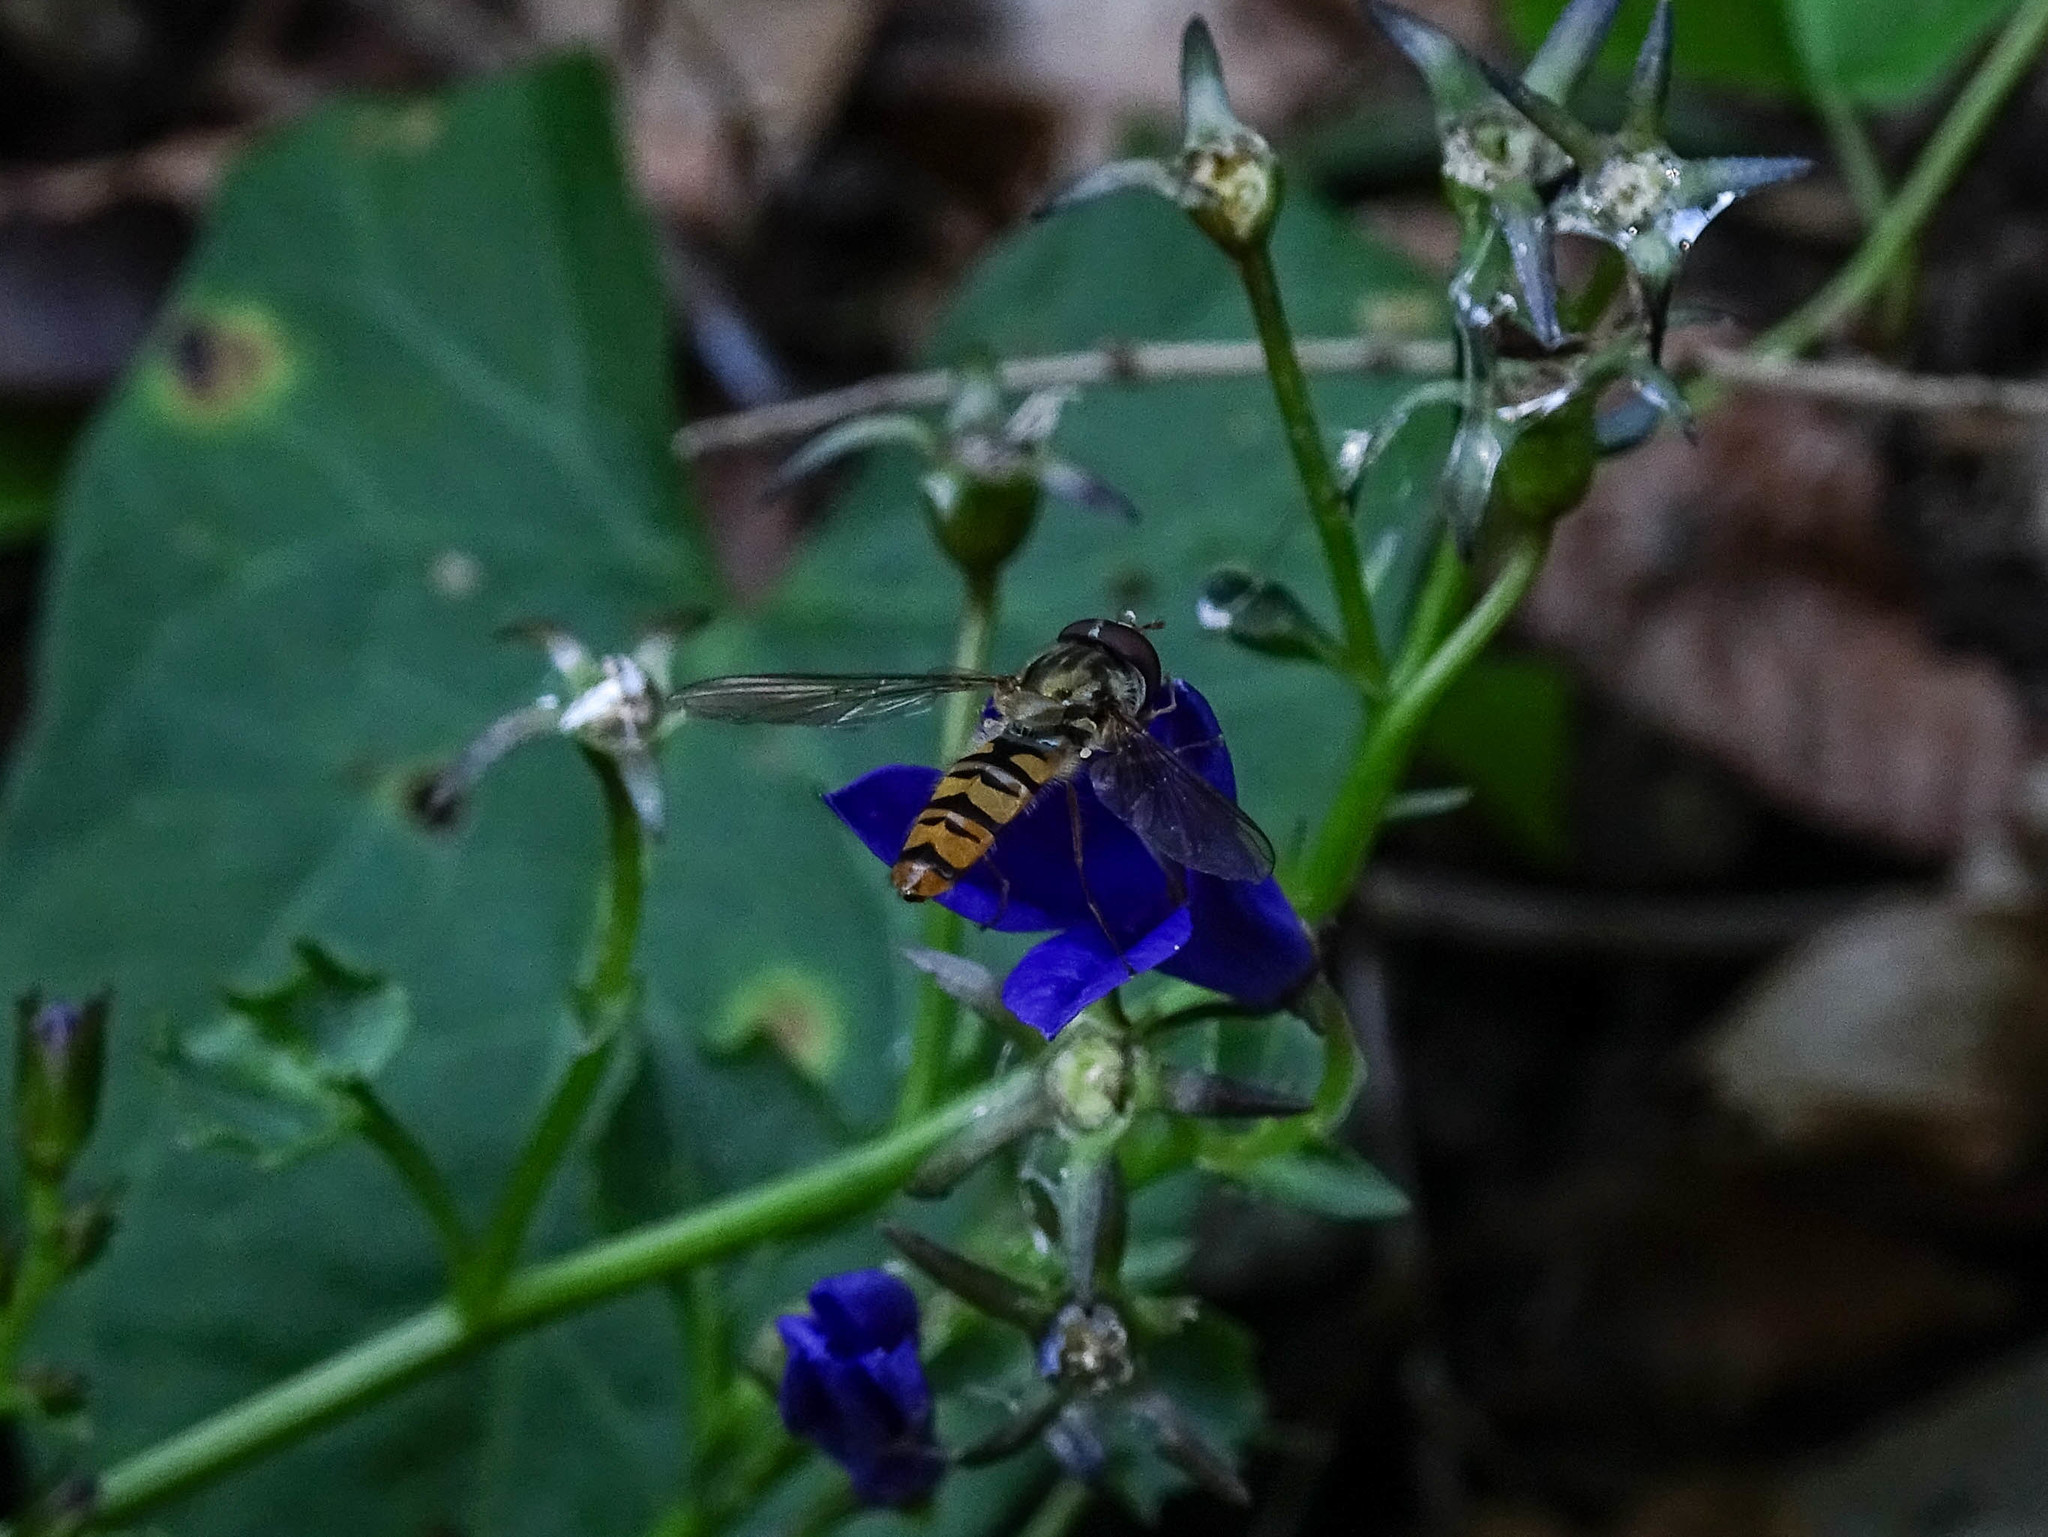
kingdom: Animalia
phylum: Arthropoda
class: Insecta
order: Diptera
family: Syrphidae
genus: Episyrphus
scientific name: Episyrphus balteatus
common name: Marmalade hoverfly
